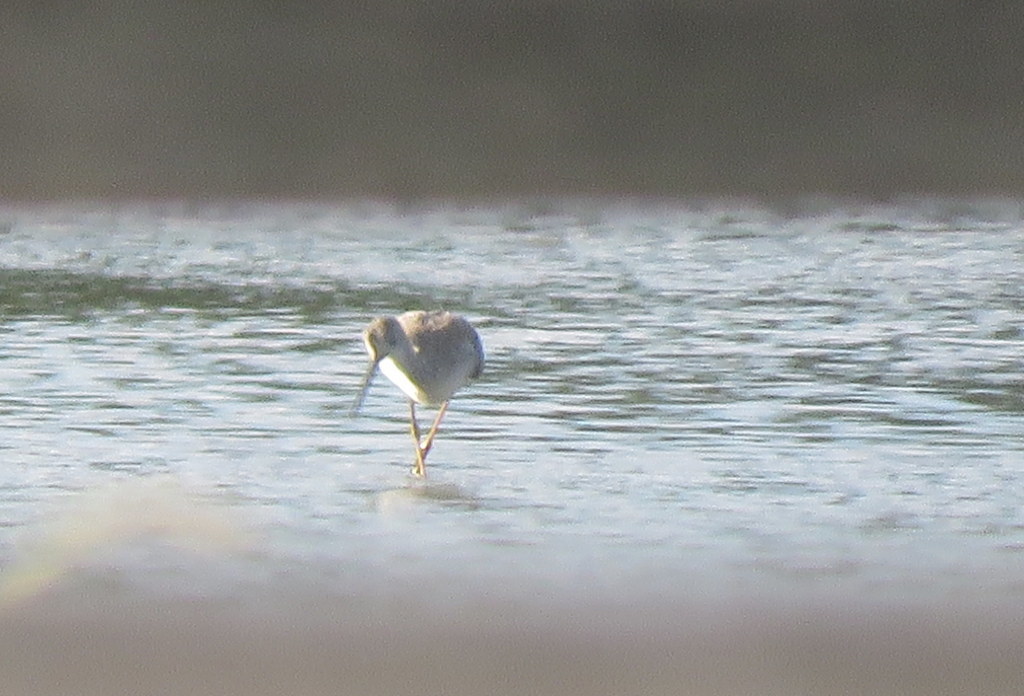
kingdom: Animalia
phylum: Chordata
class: Aves
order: Charadriiformes
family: Scolopacidae
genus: Tringa
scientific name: Tringa melanoleuca
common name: Greater yellowlegs
